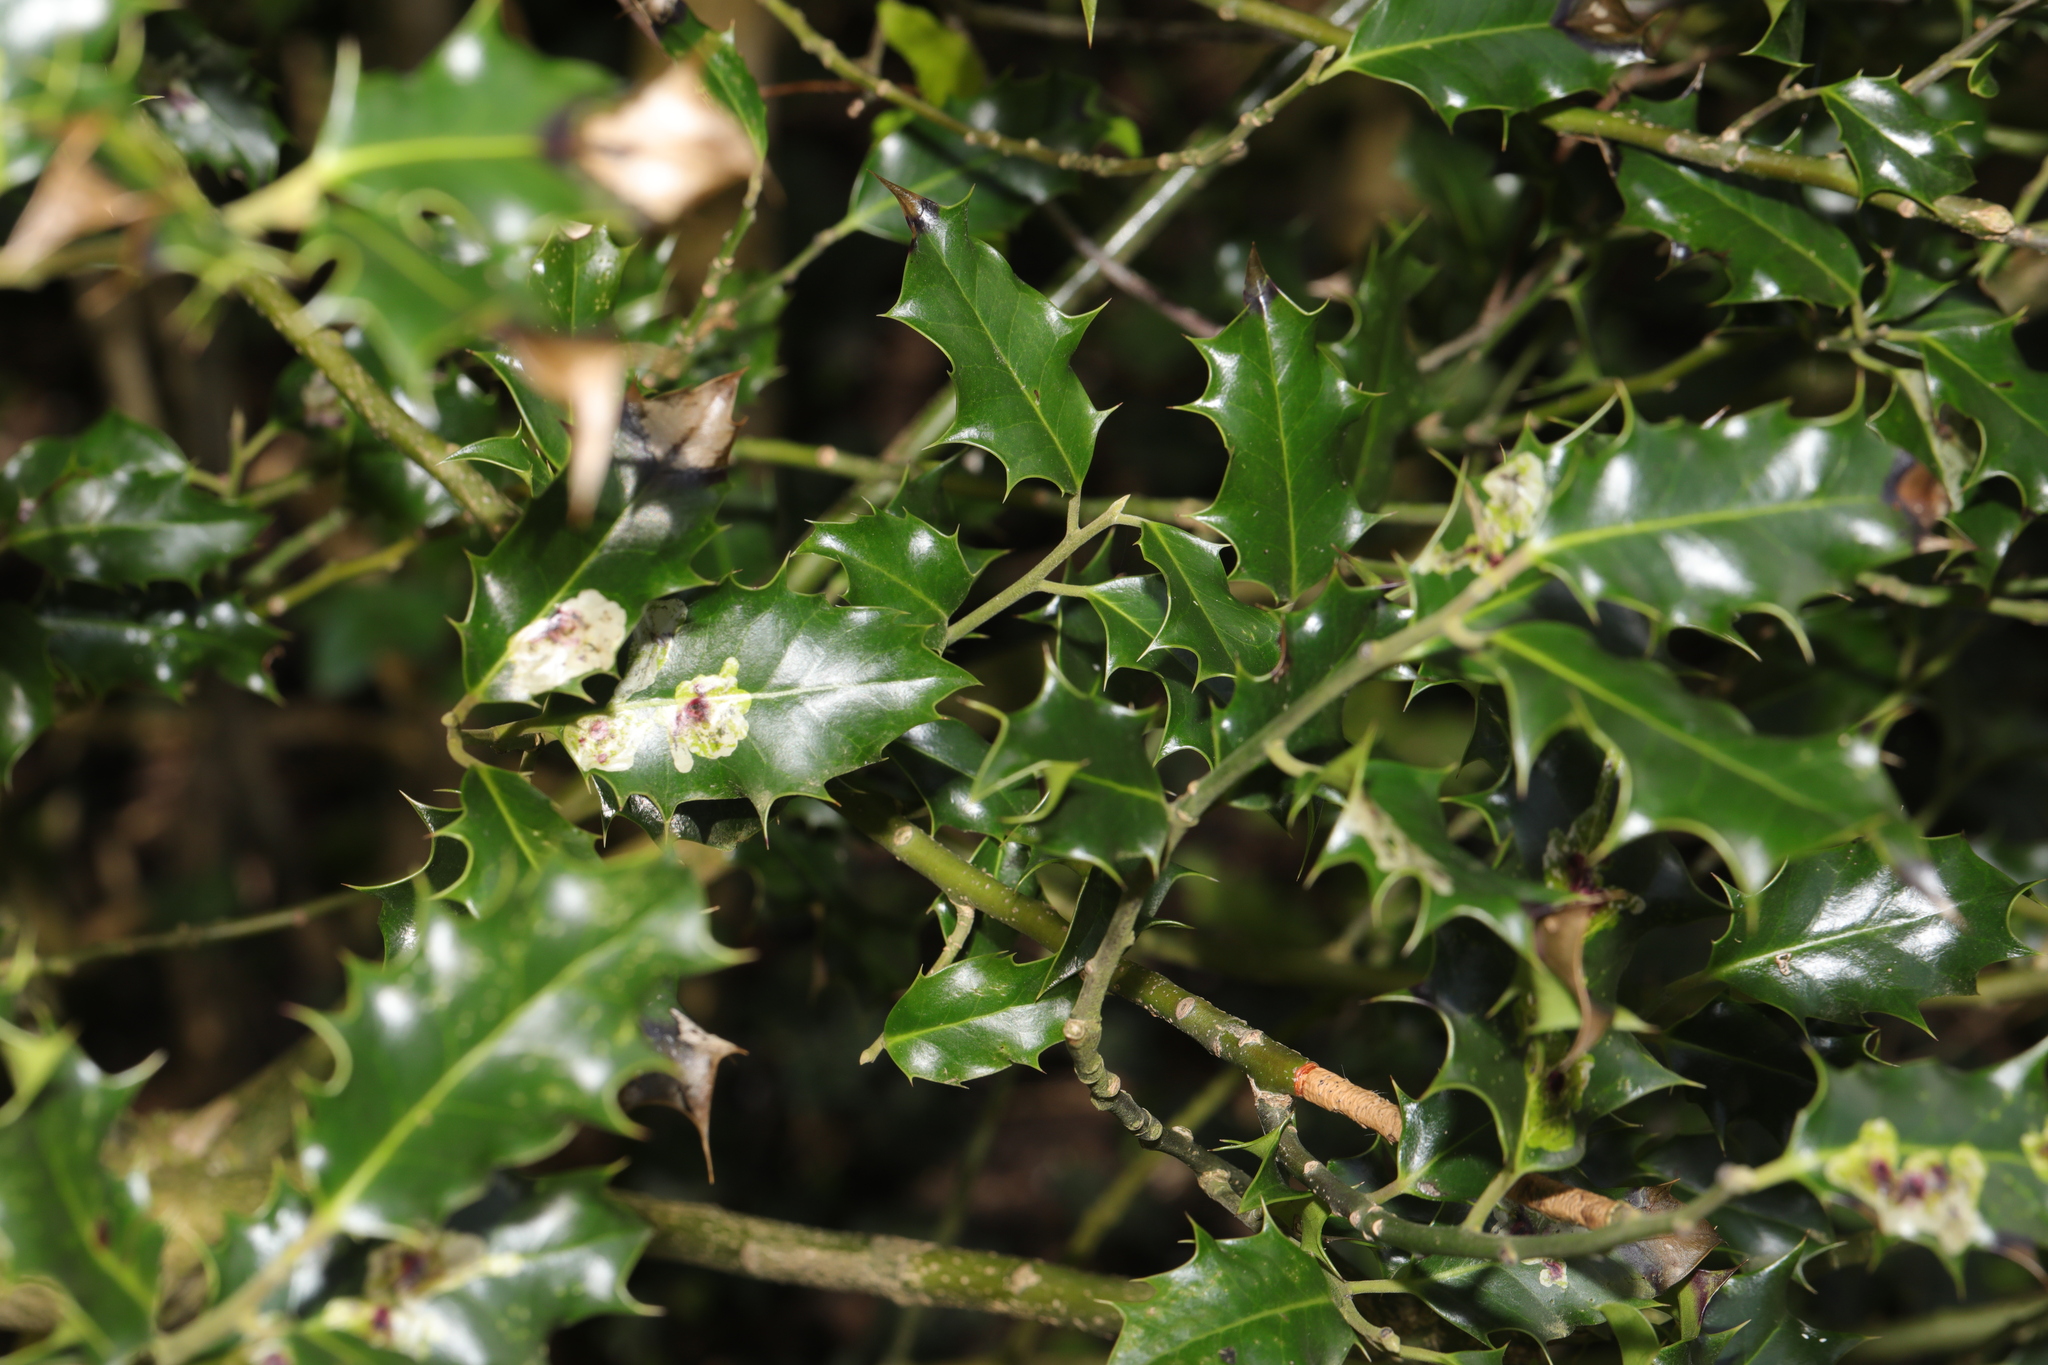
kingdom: Plantae
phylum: Tracheophyta
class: Magnoliopsida
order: Aquifoliales
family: Aquifoliaceae
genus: Ilex
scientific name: Ilex aquifolium
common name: English holly
